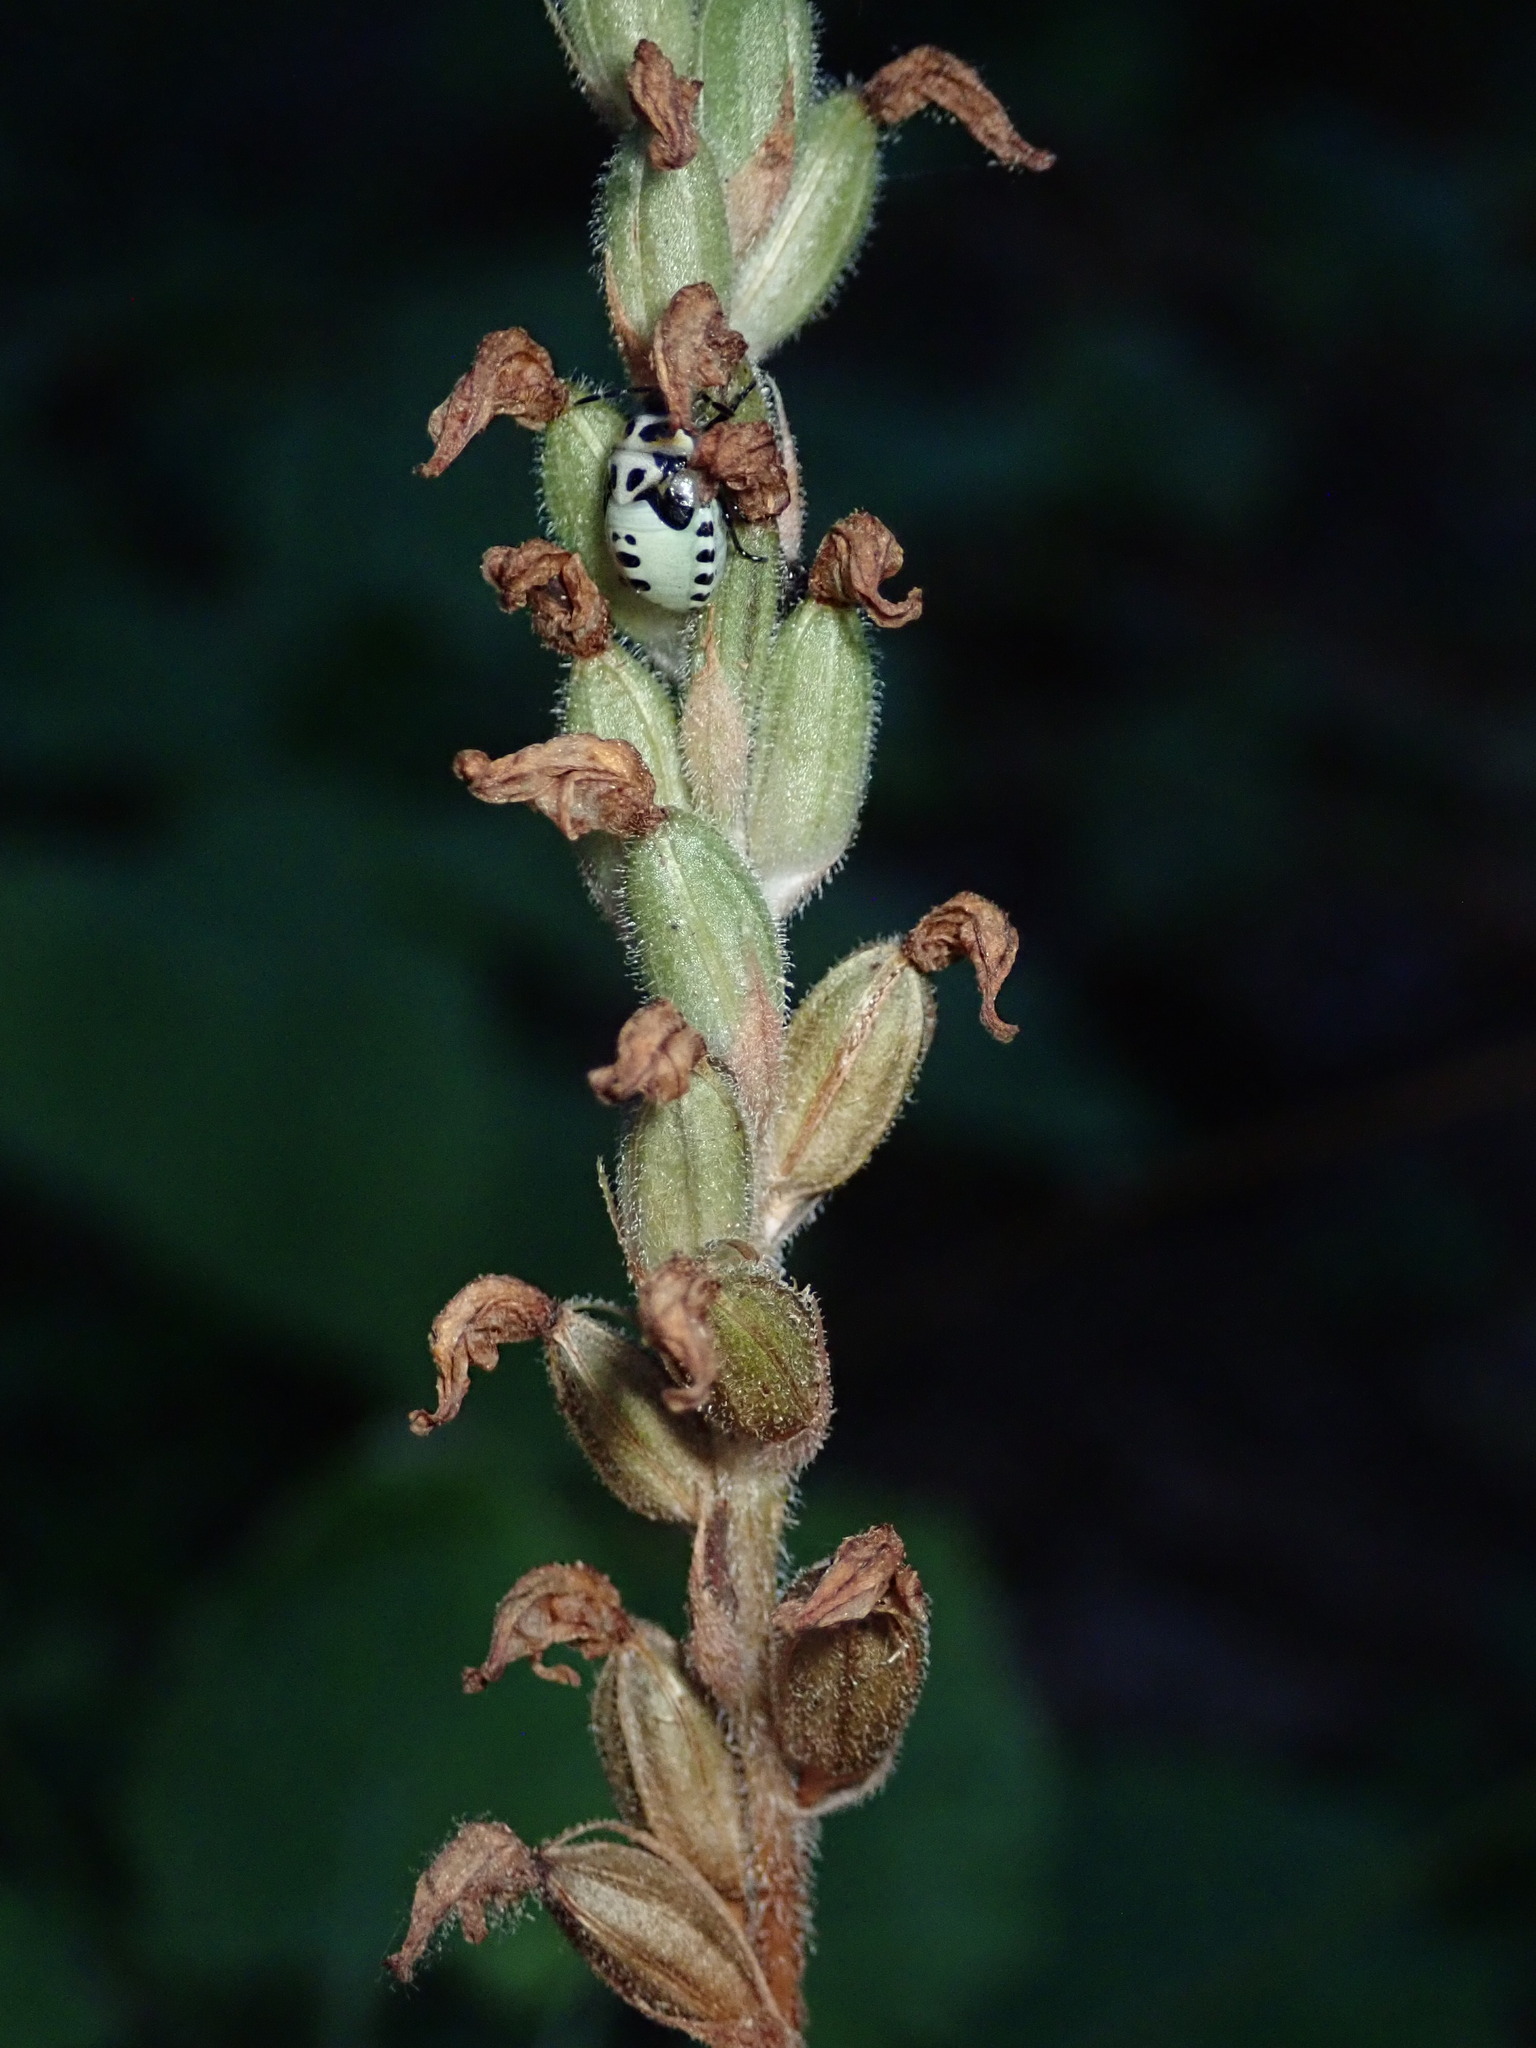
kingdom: Plantae
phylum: Tracheophyta
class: Liliopsida
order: Asparagales
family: Orchidaceae
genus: Goodyera
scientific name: Goodyera oblongifolia
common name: Giant rattlesnake-plantain
